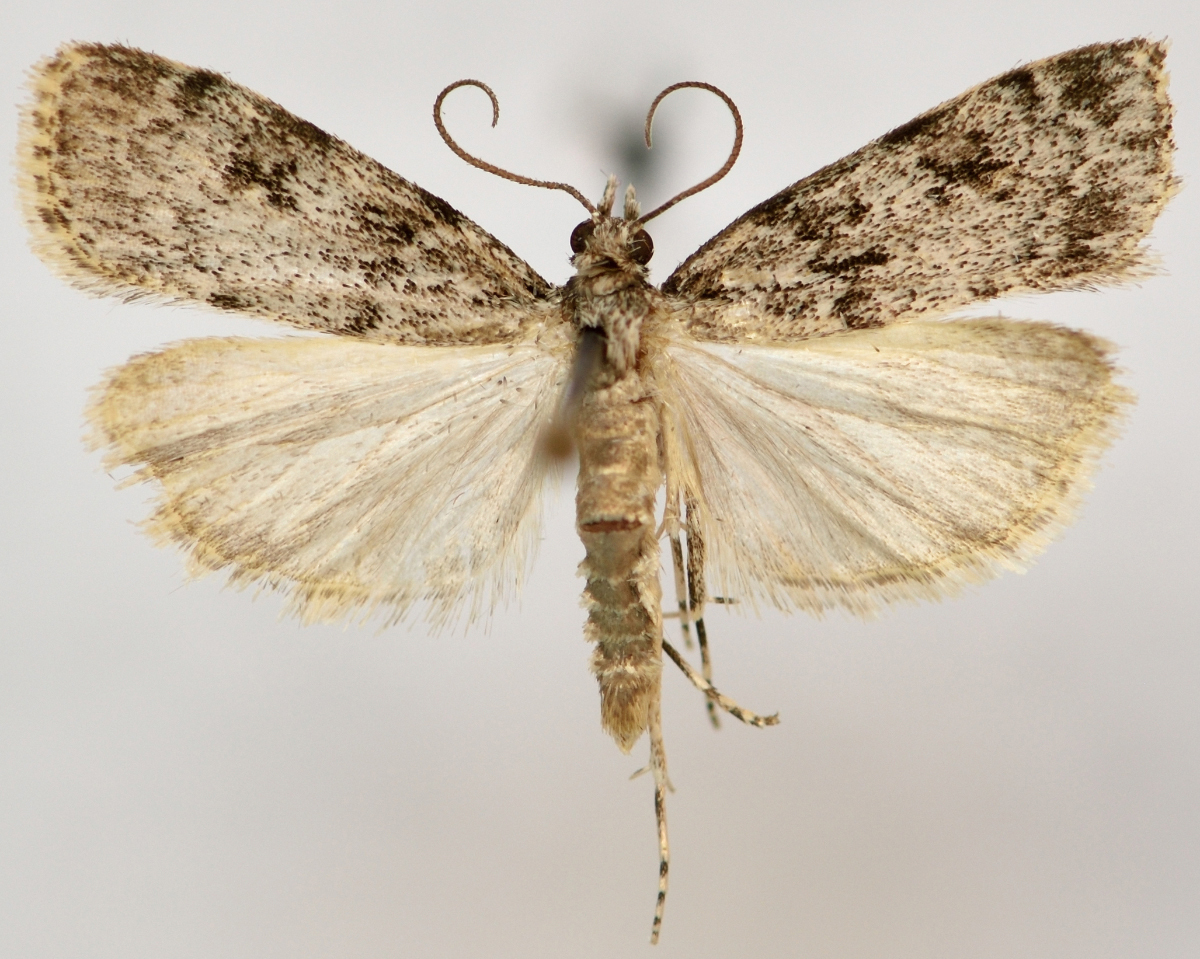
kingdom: Animalia
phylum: Arthropoda
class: Insecta
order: Lepidoptera
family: Crambidae
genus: Eudonia
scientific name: Eudonia lacustrata
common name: Little grey
